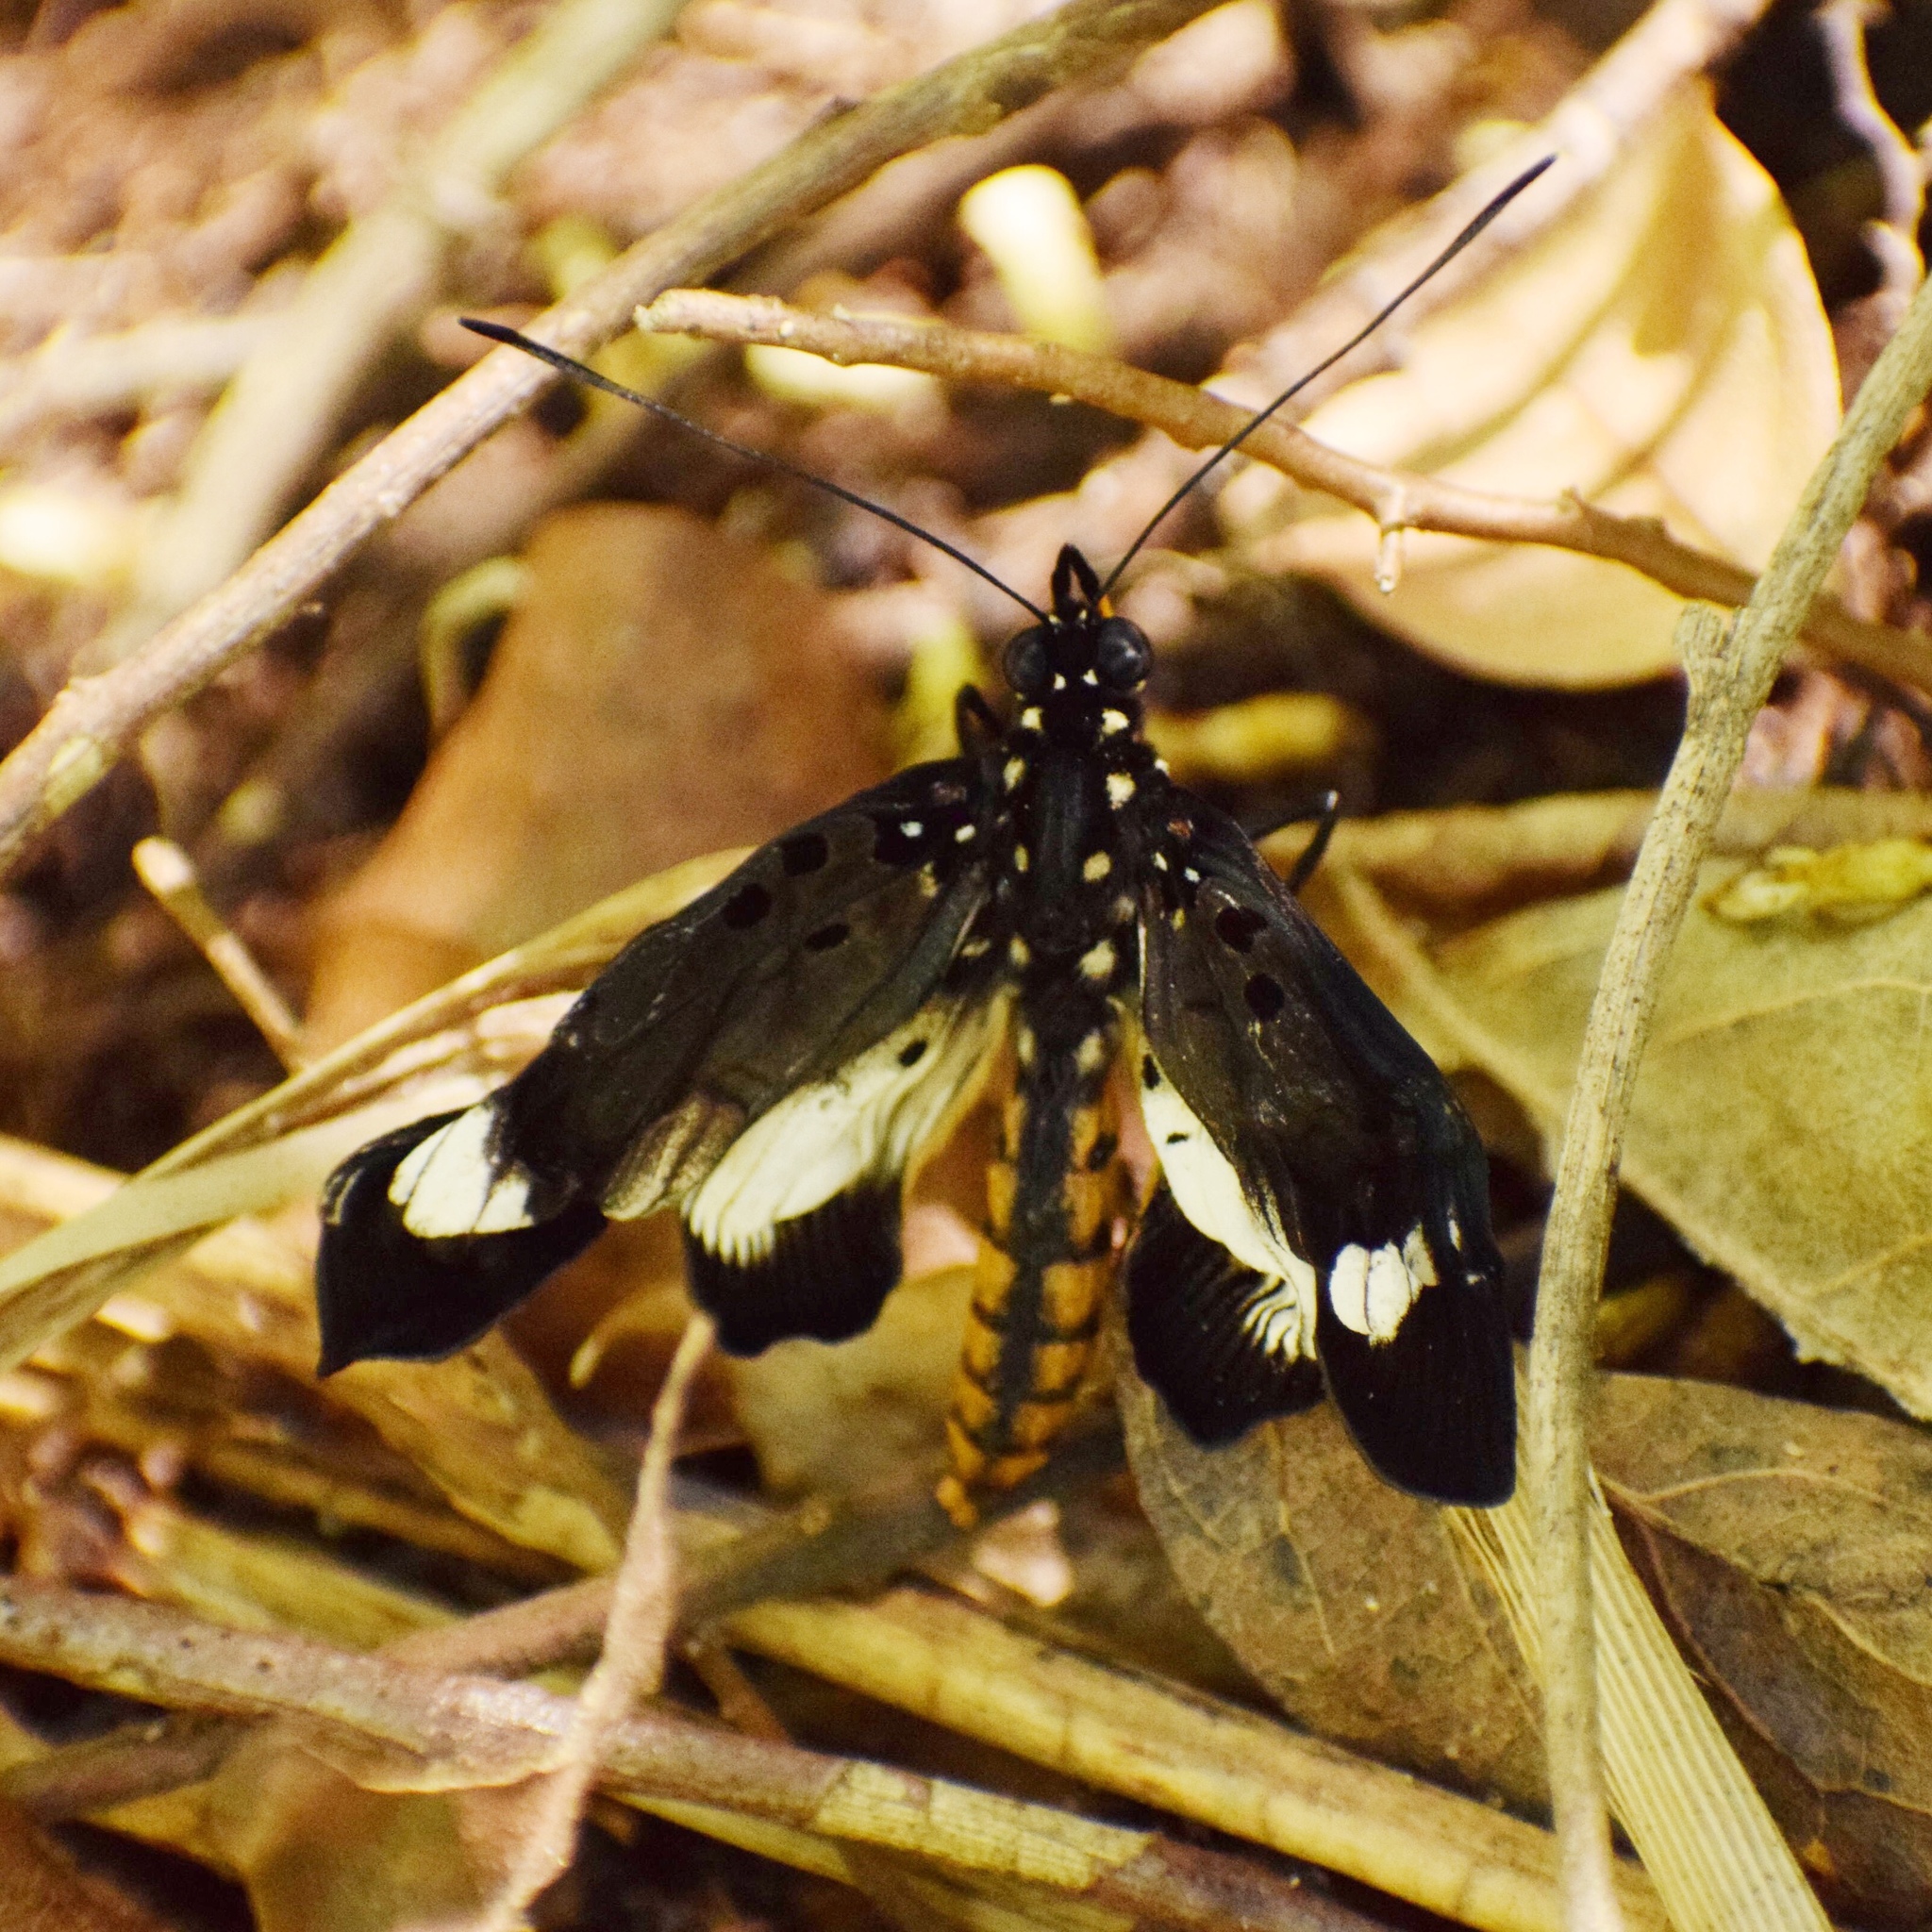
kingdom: Animalia
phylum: Arthropoda
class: Insecta
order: Lepidoptera
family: Nymphalidae
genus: Chloropoea
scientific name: Chloropoea eurytus
